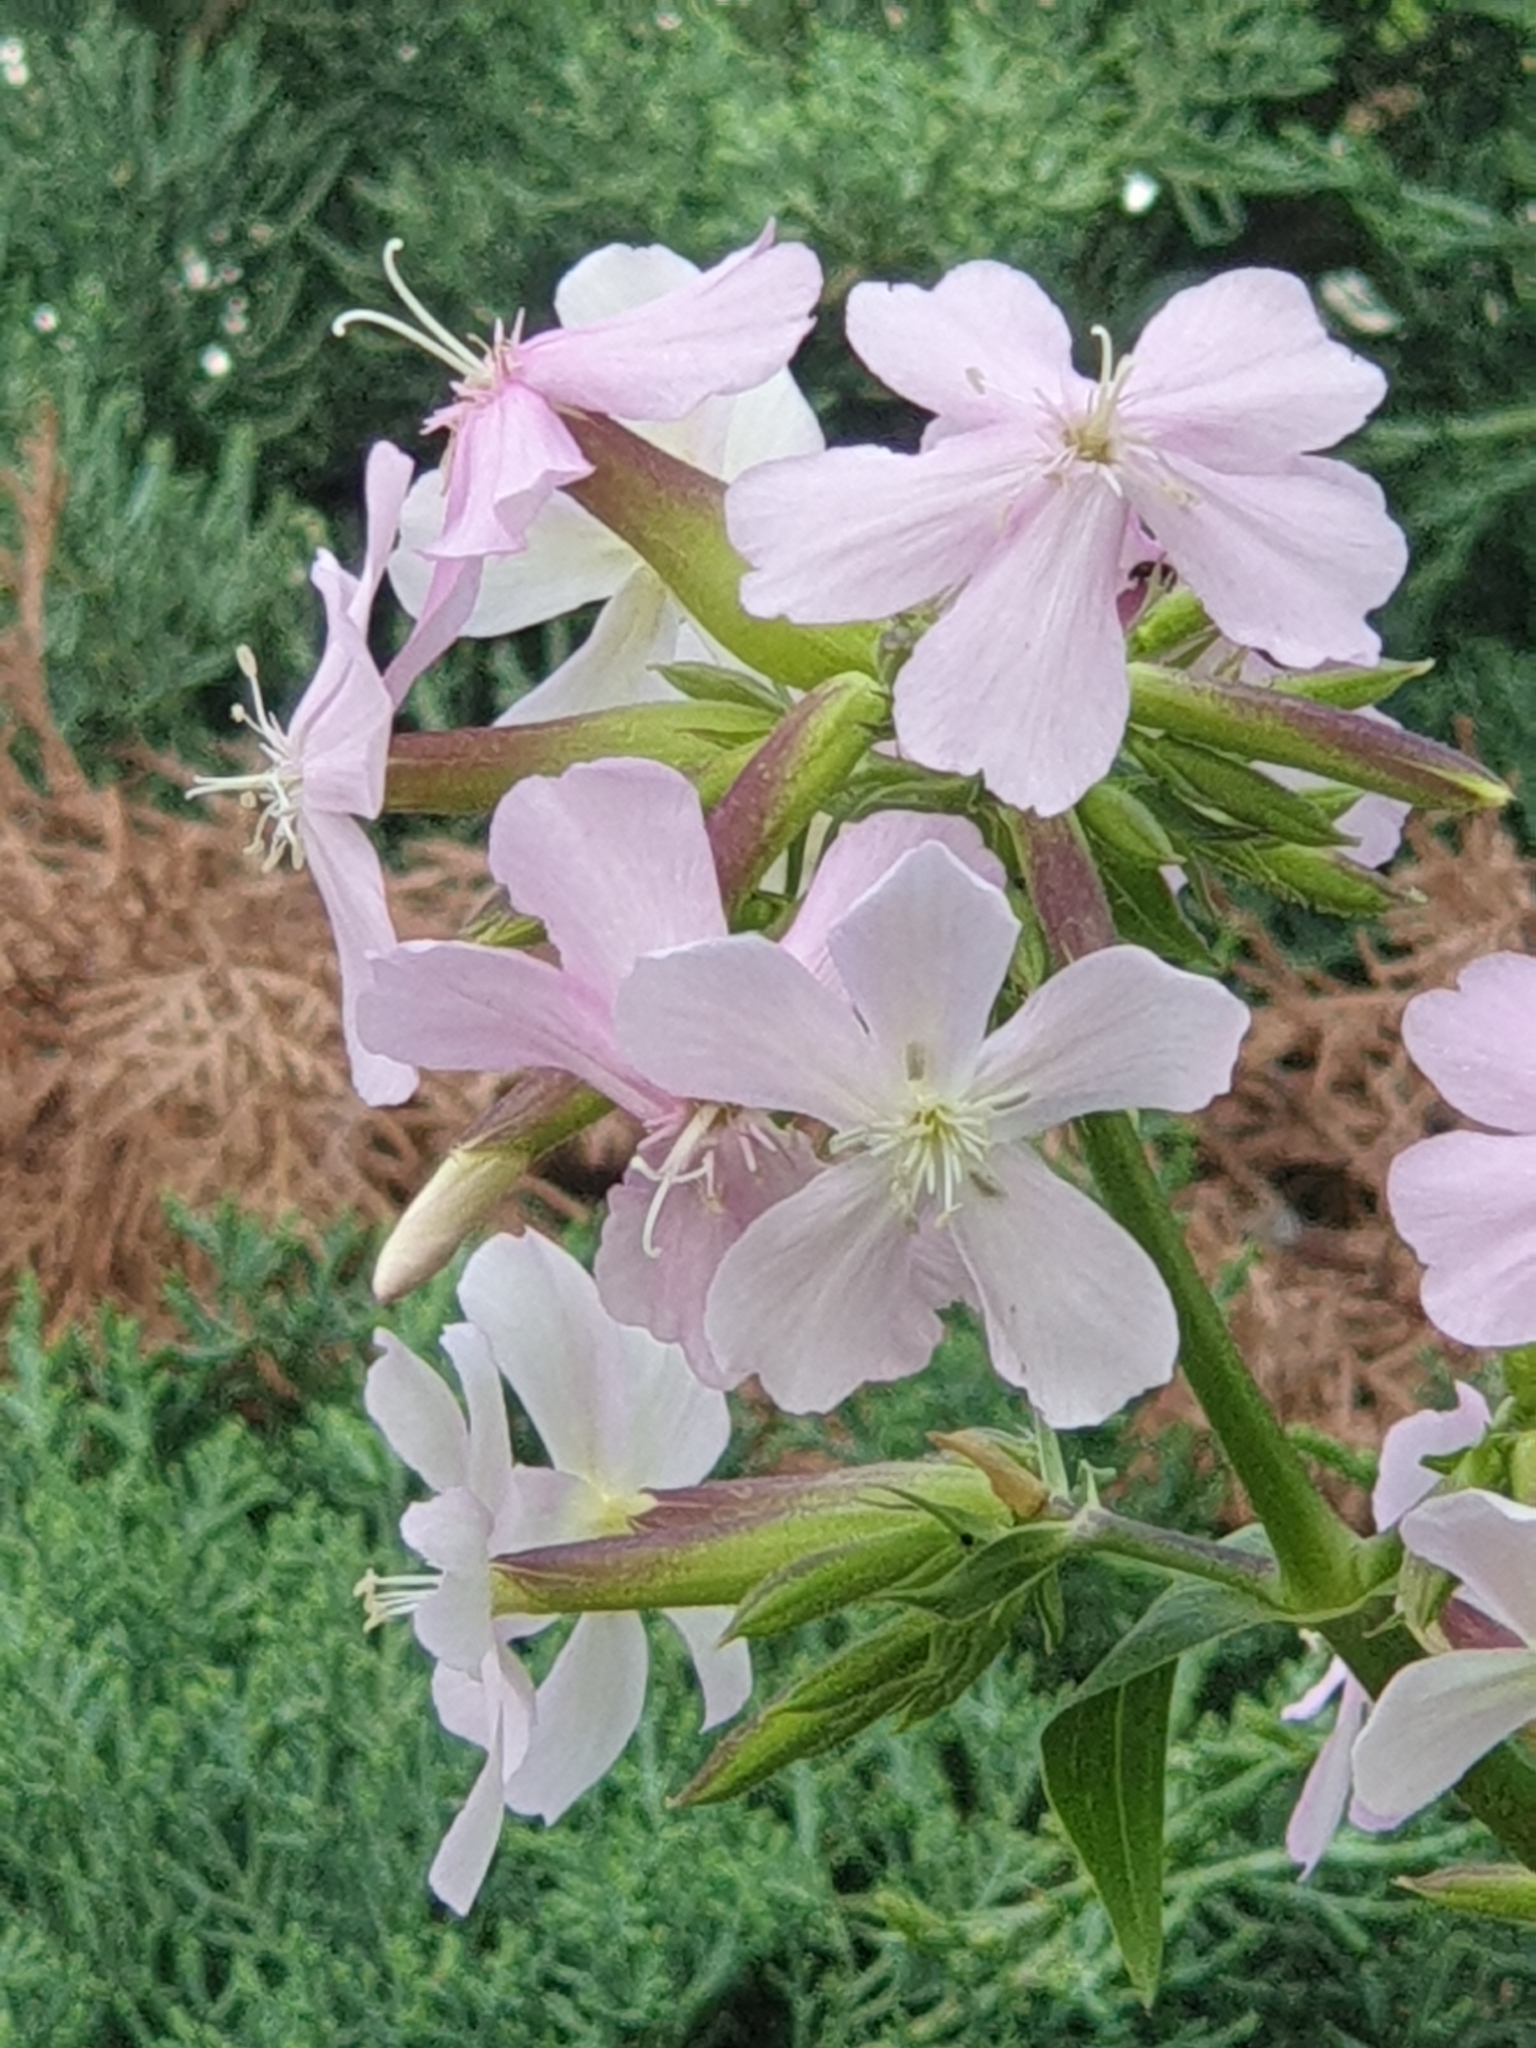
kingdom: Plantae
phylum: Tracheophyta
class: Magnoliopsida
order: Caryophyllales
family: Caryophyllaceae
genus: Saponaria
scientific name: Saponaria officinalis
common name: Soapwort
